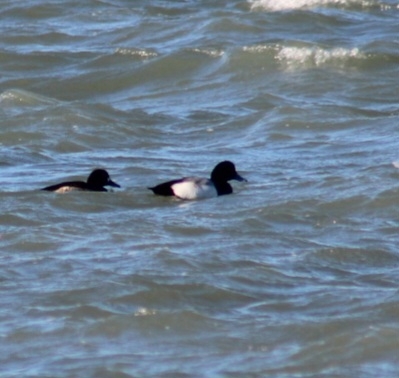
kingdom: Animalia
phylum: Chordata
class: Aves
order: Anseriformes
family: Anatidae
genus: Aythya
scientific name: Aythya marila
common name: Greater scaup
